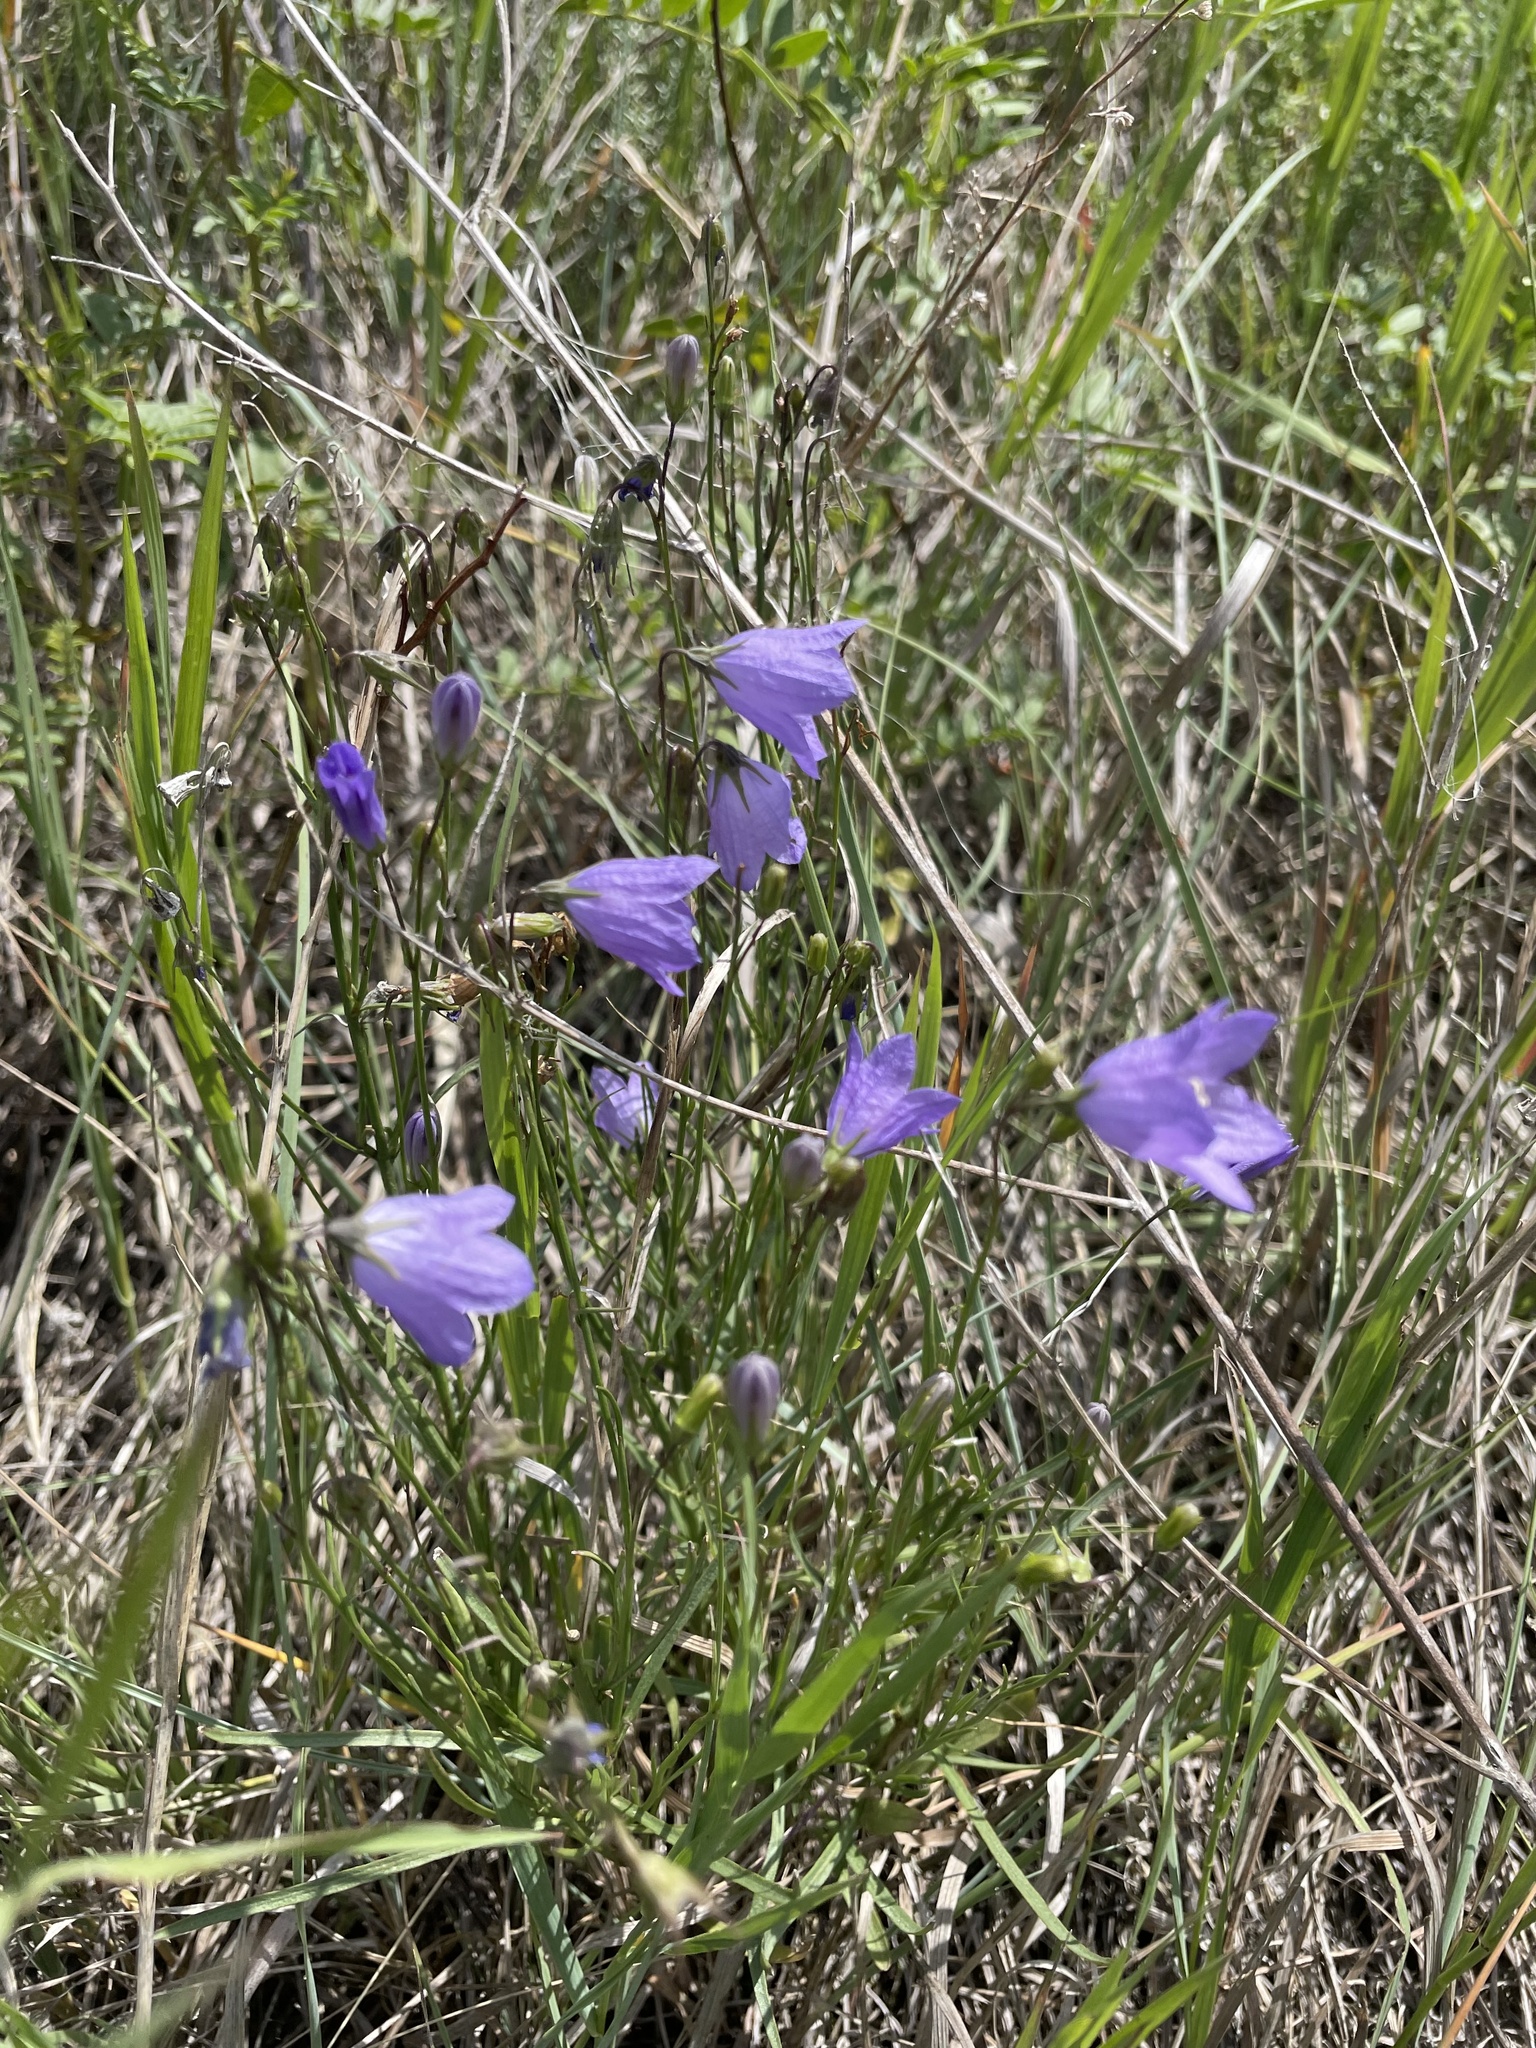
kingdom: Plantae
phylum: Tracheophyta
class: Magnoliopsida
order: Asterales
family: Campanulaceae
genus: Campanula
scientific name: Campanula alaskana
